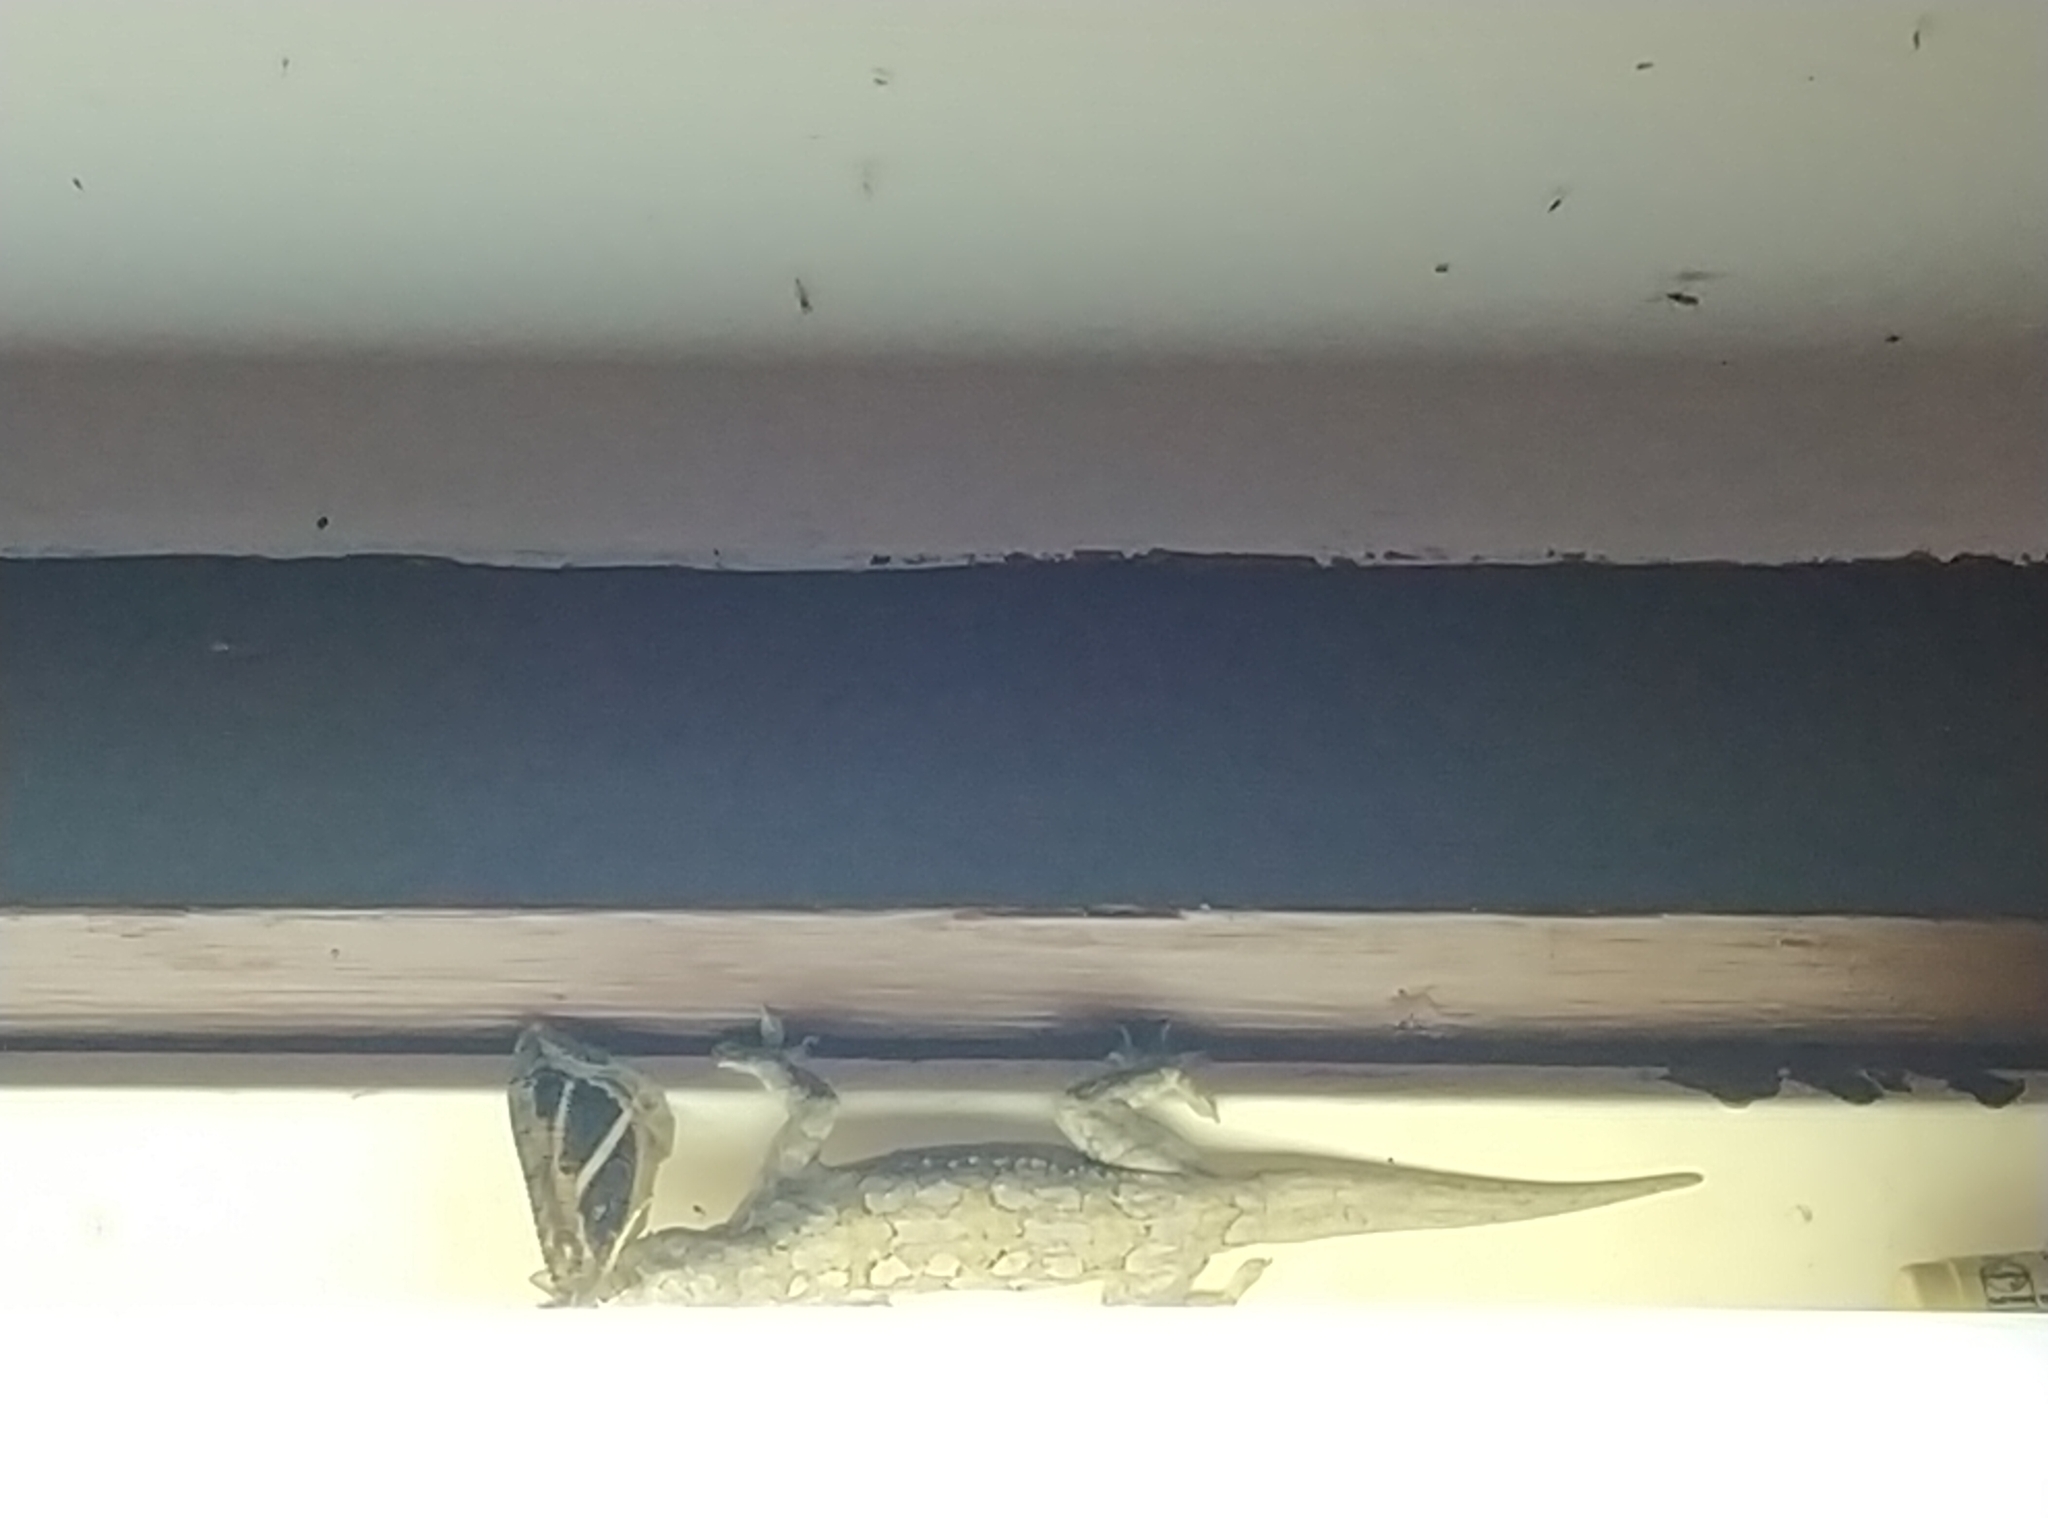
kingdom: Animalia
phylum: Arthropoda
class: Insecta
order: Lepidoptera
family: Erebidae
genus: Eudocima
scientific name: Eudocima materna
